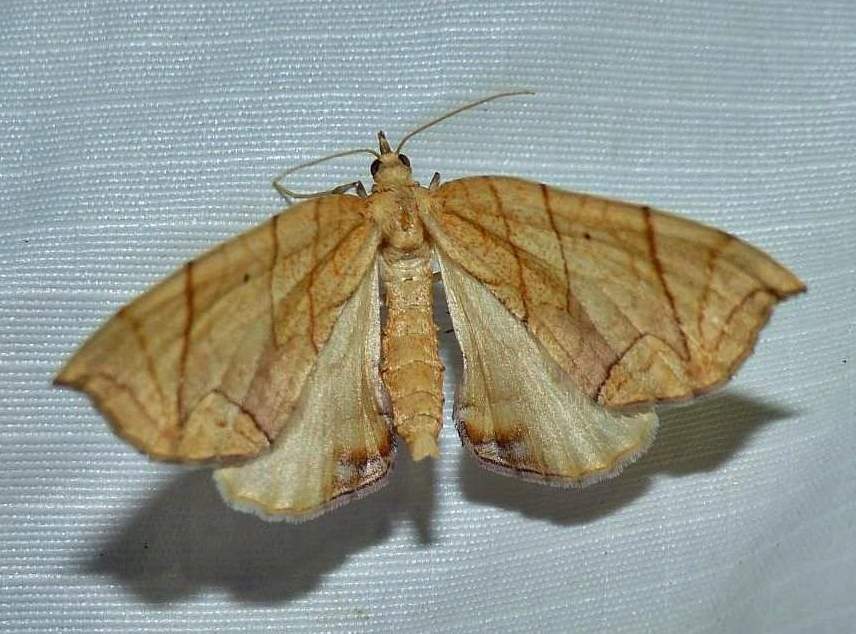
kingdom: Animalia
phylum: Arthropoda
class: Insecta
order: Lepidoptera
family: Geometridae
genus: Eulithis
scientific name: Eulithis
